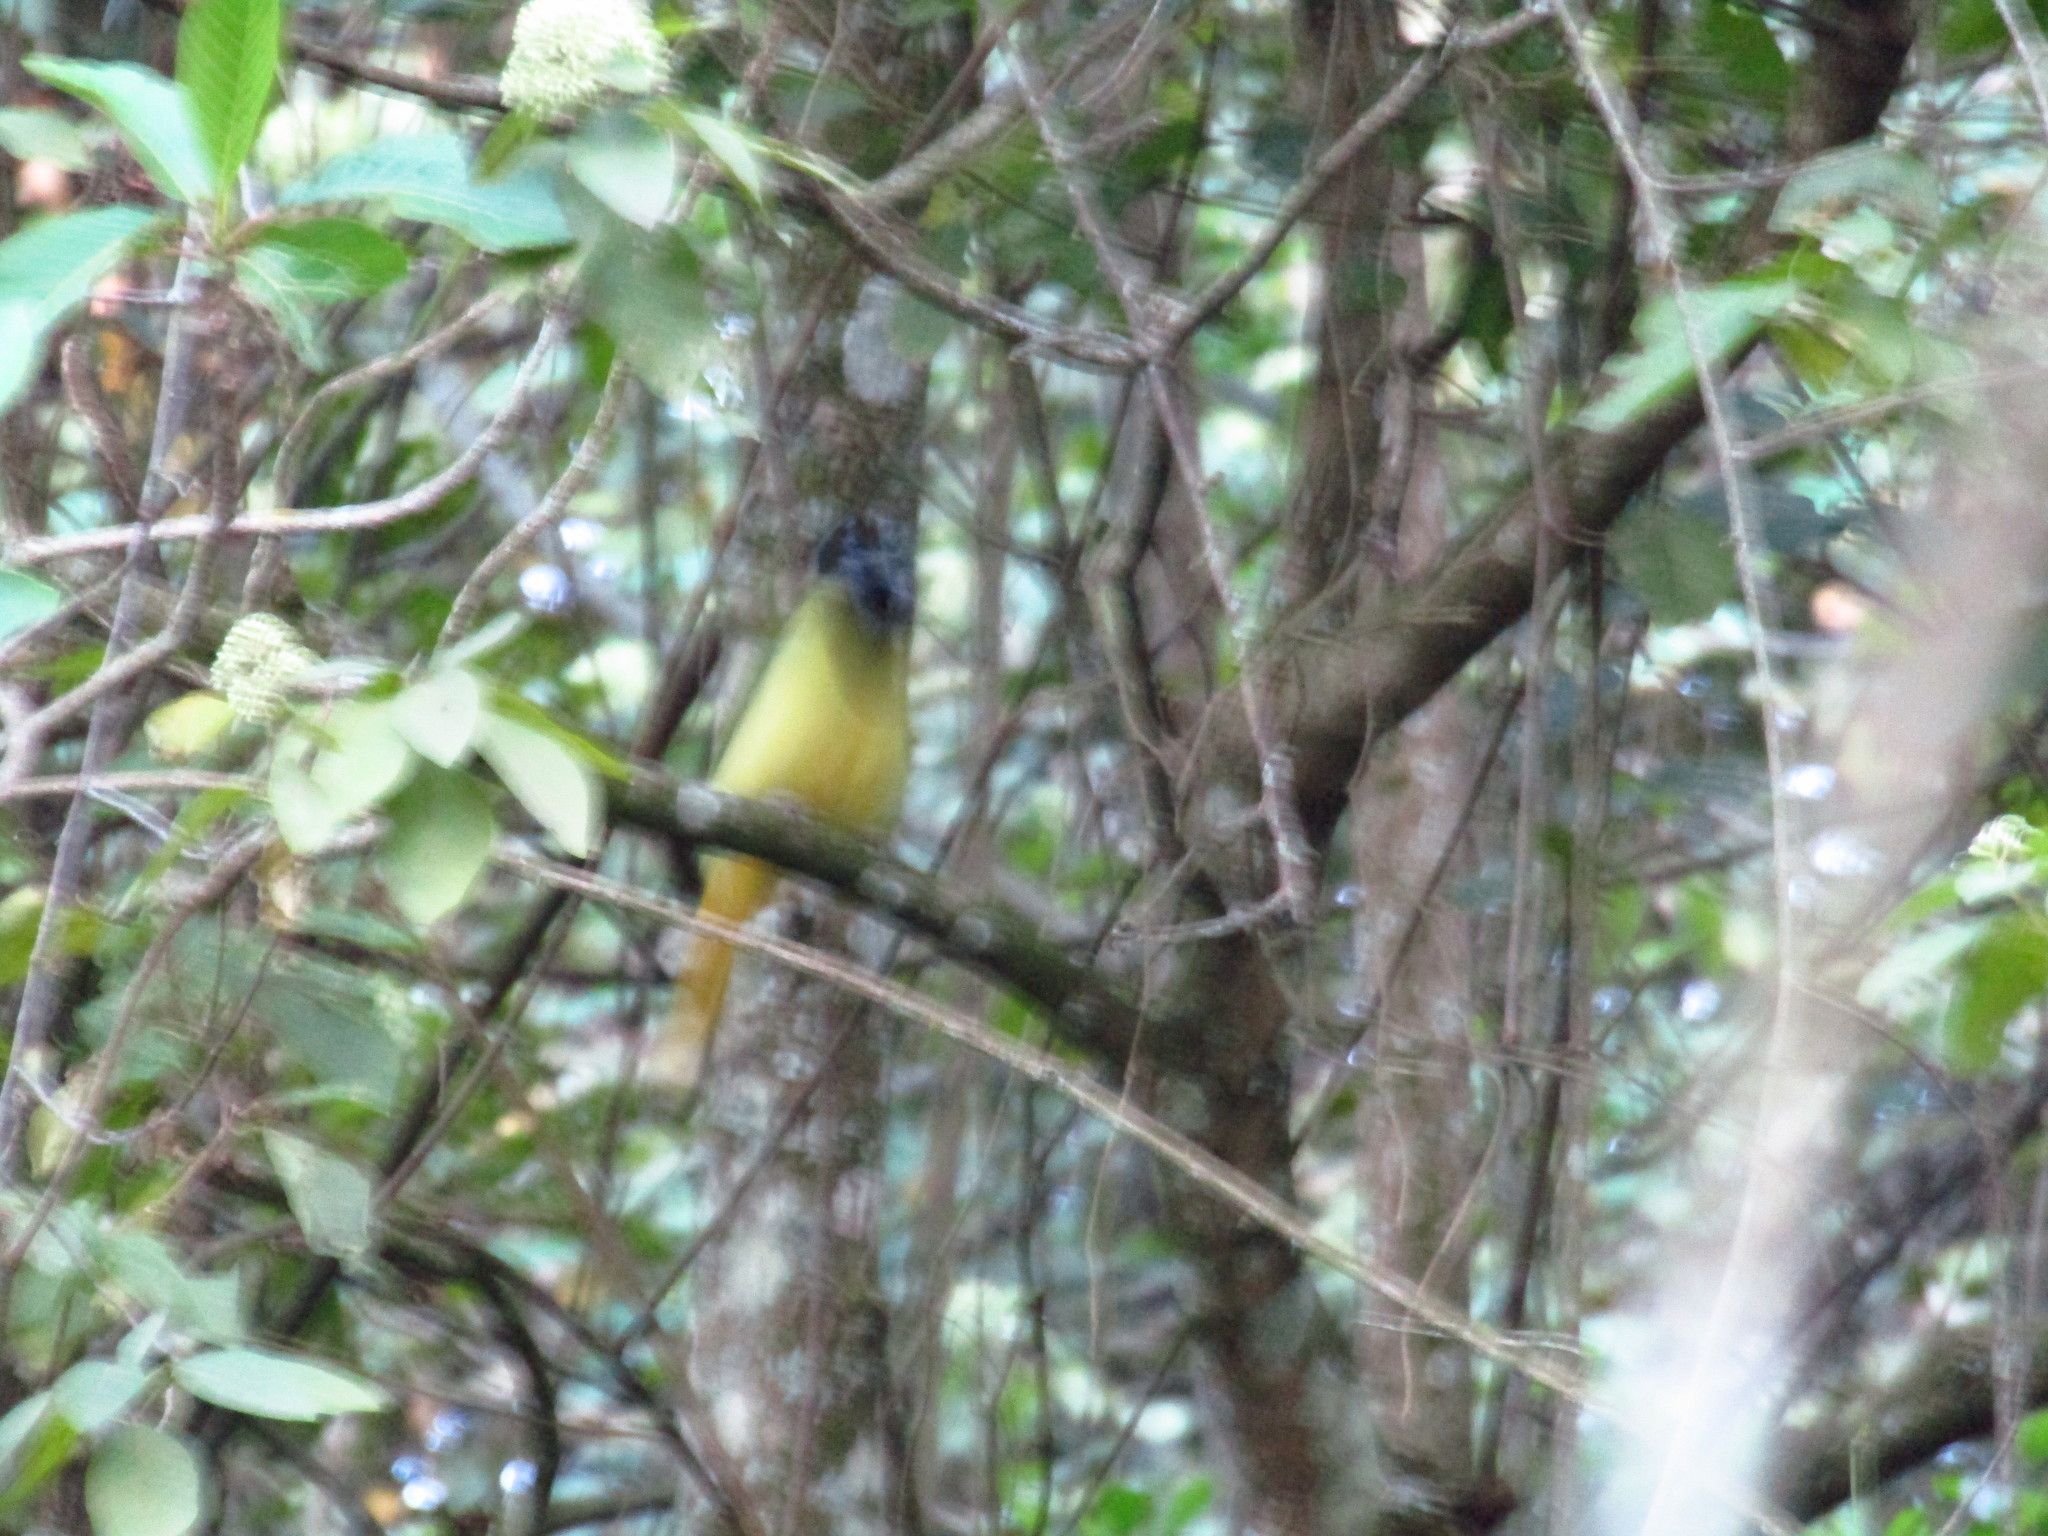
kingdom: Animalia
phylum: Chordata
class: Aves
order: Passeriformes
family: Corvidae
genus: Cyanocorax
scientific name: Cyanocorax yncas
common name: Green jay
